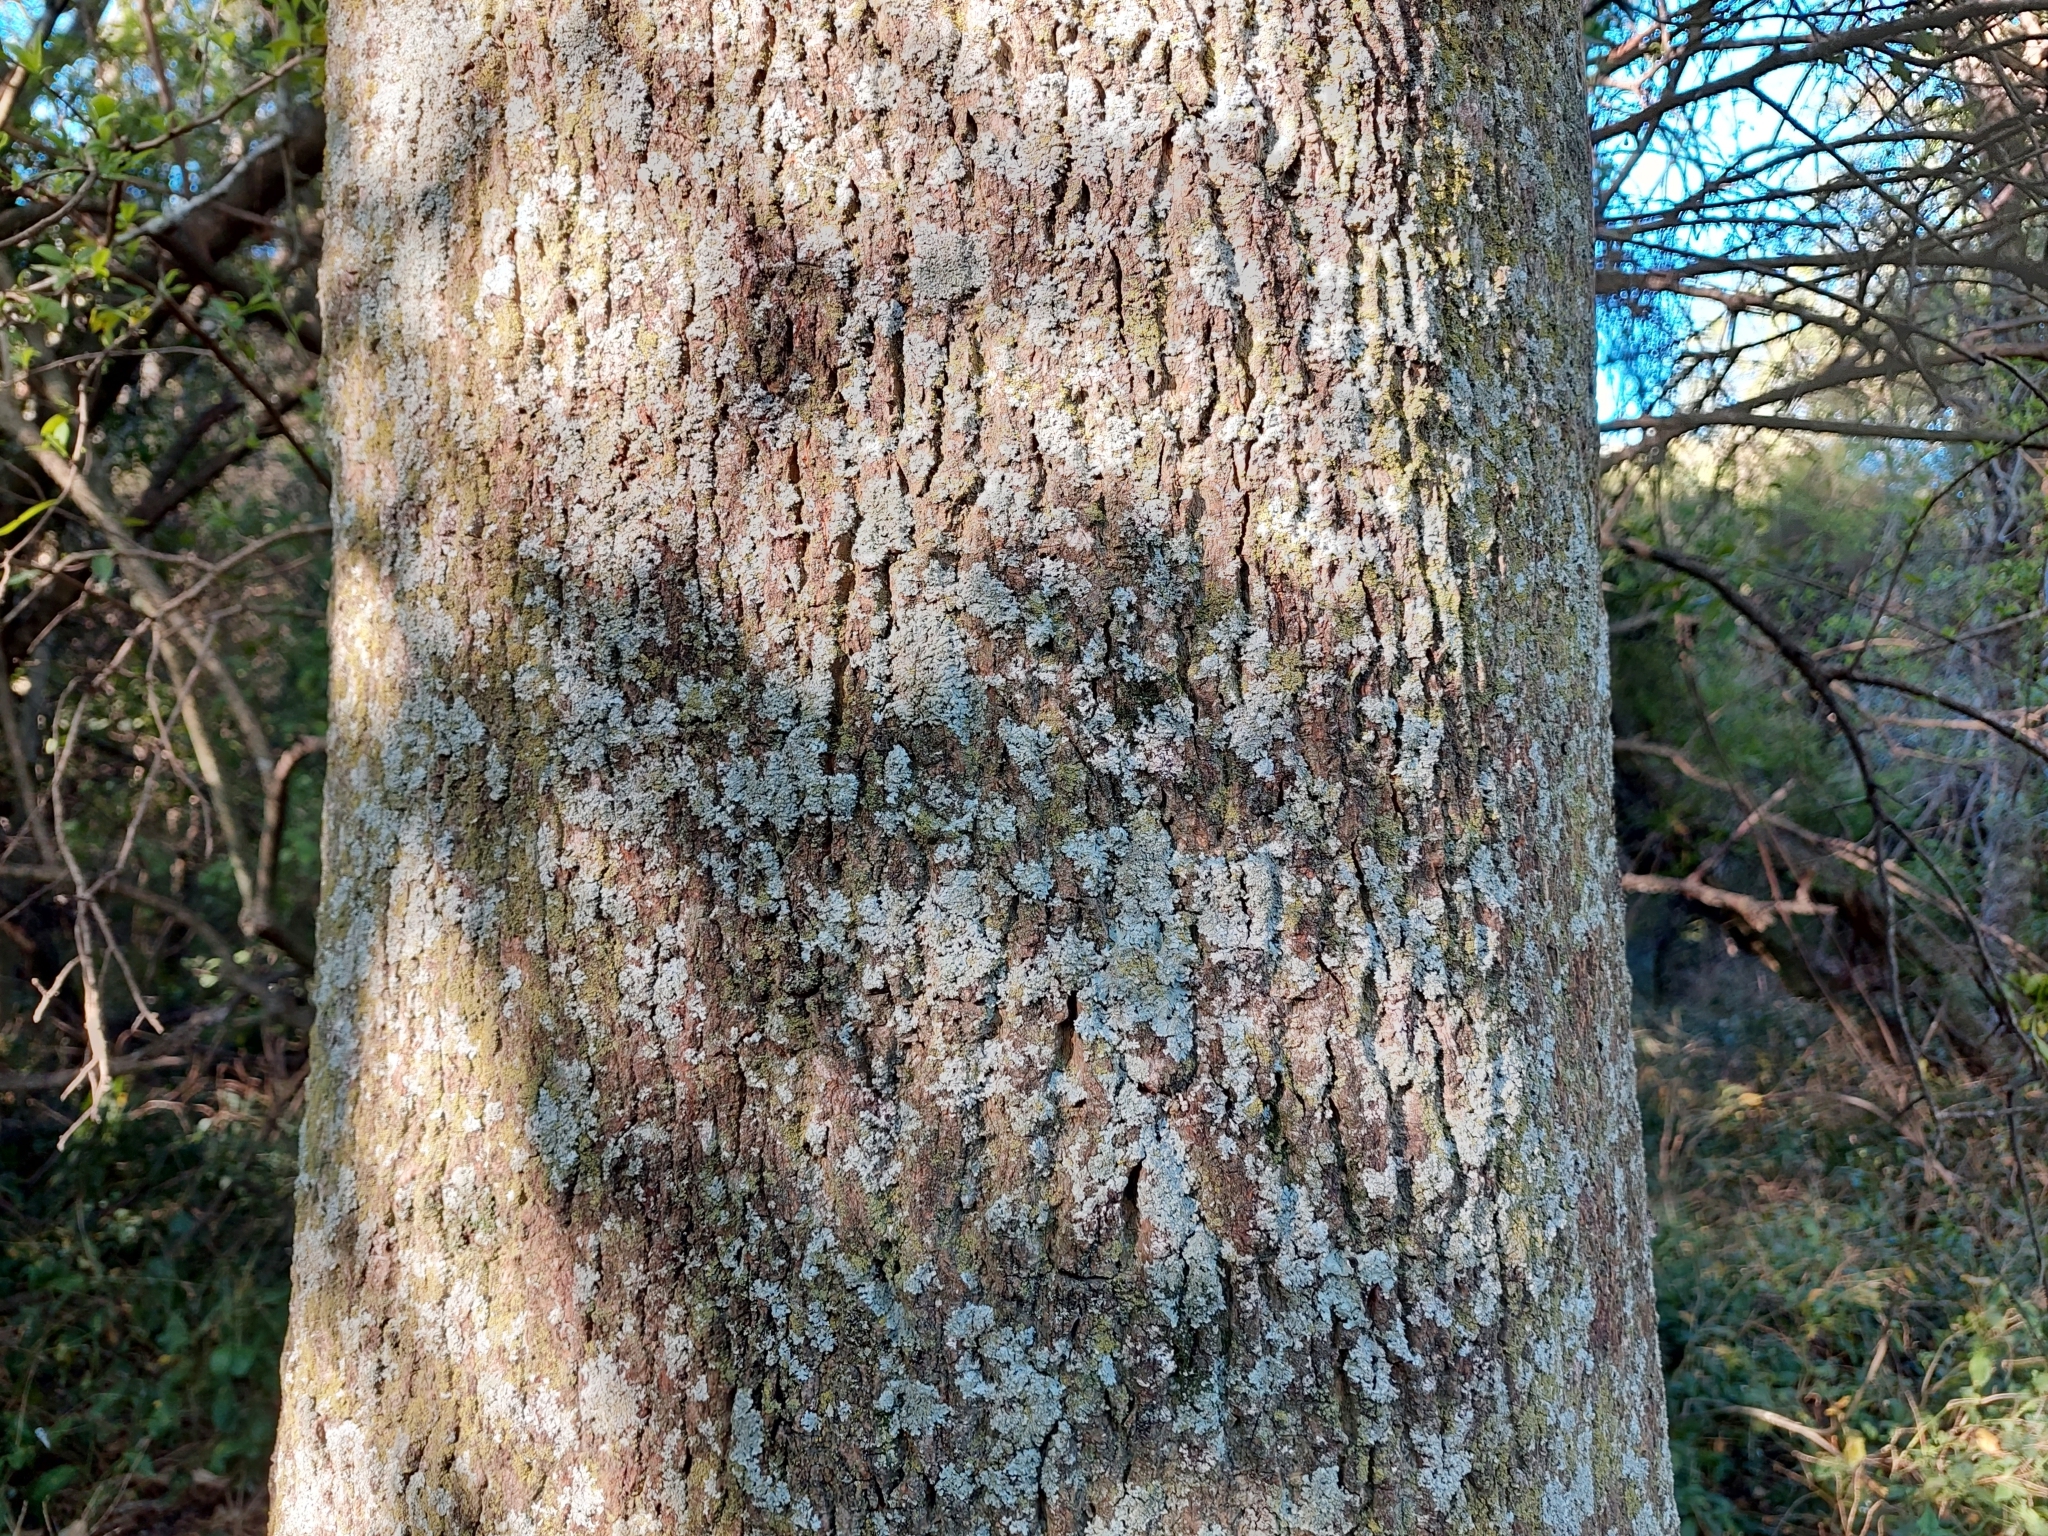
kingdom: Plantae
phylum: Tracheophyta
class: Magnoliopsida
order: Caryophyllales
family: Phytolaccaceae
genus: Phytolacca
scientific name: Phytolacca dioica
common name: Pokeweed
